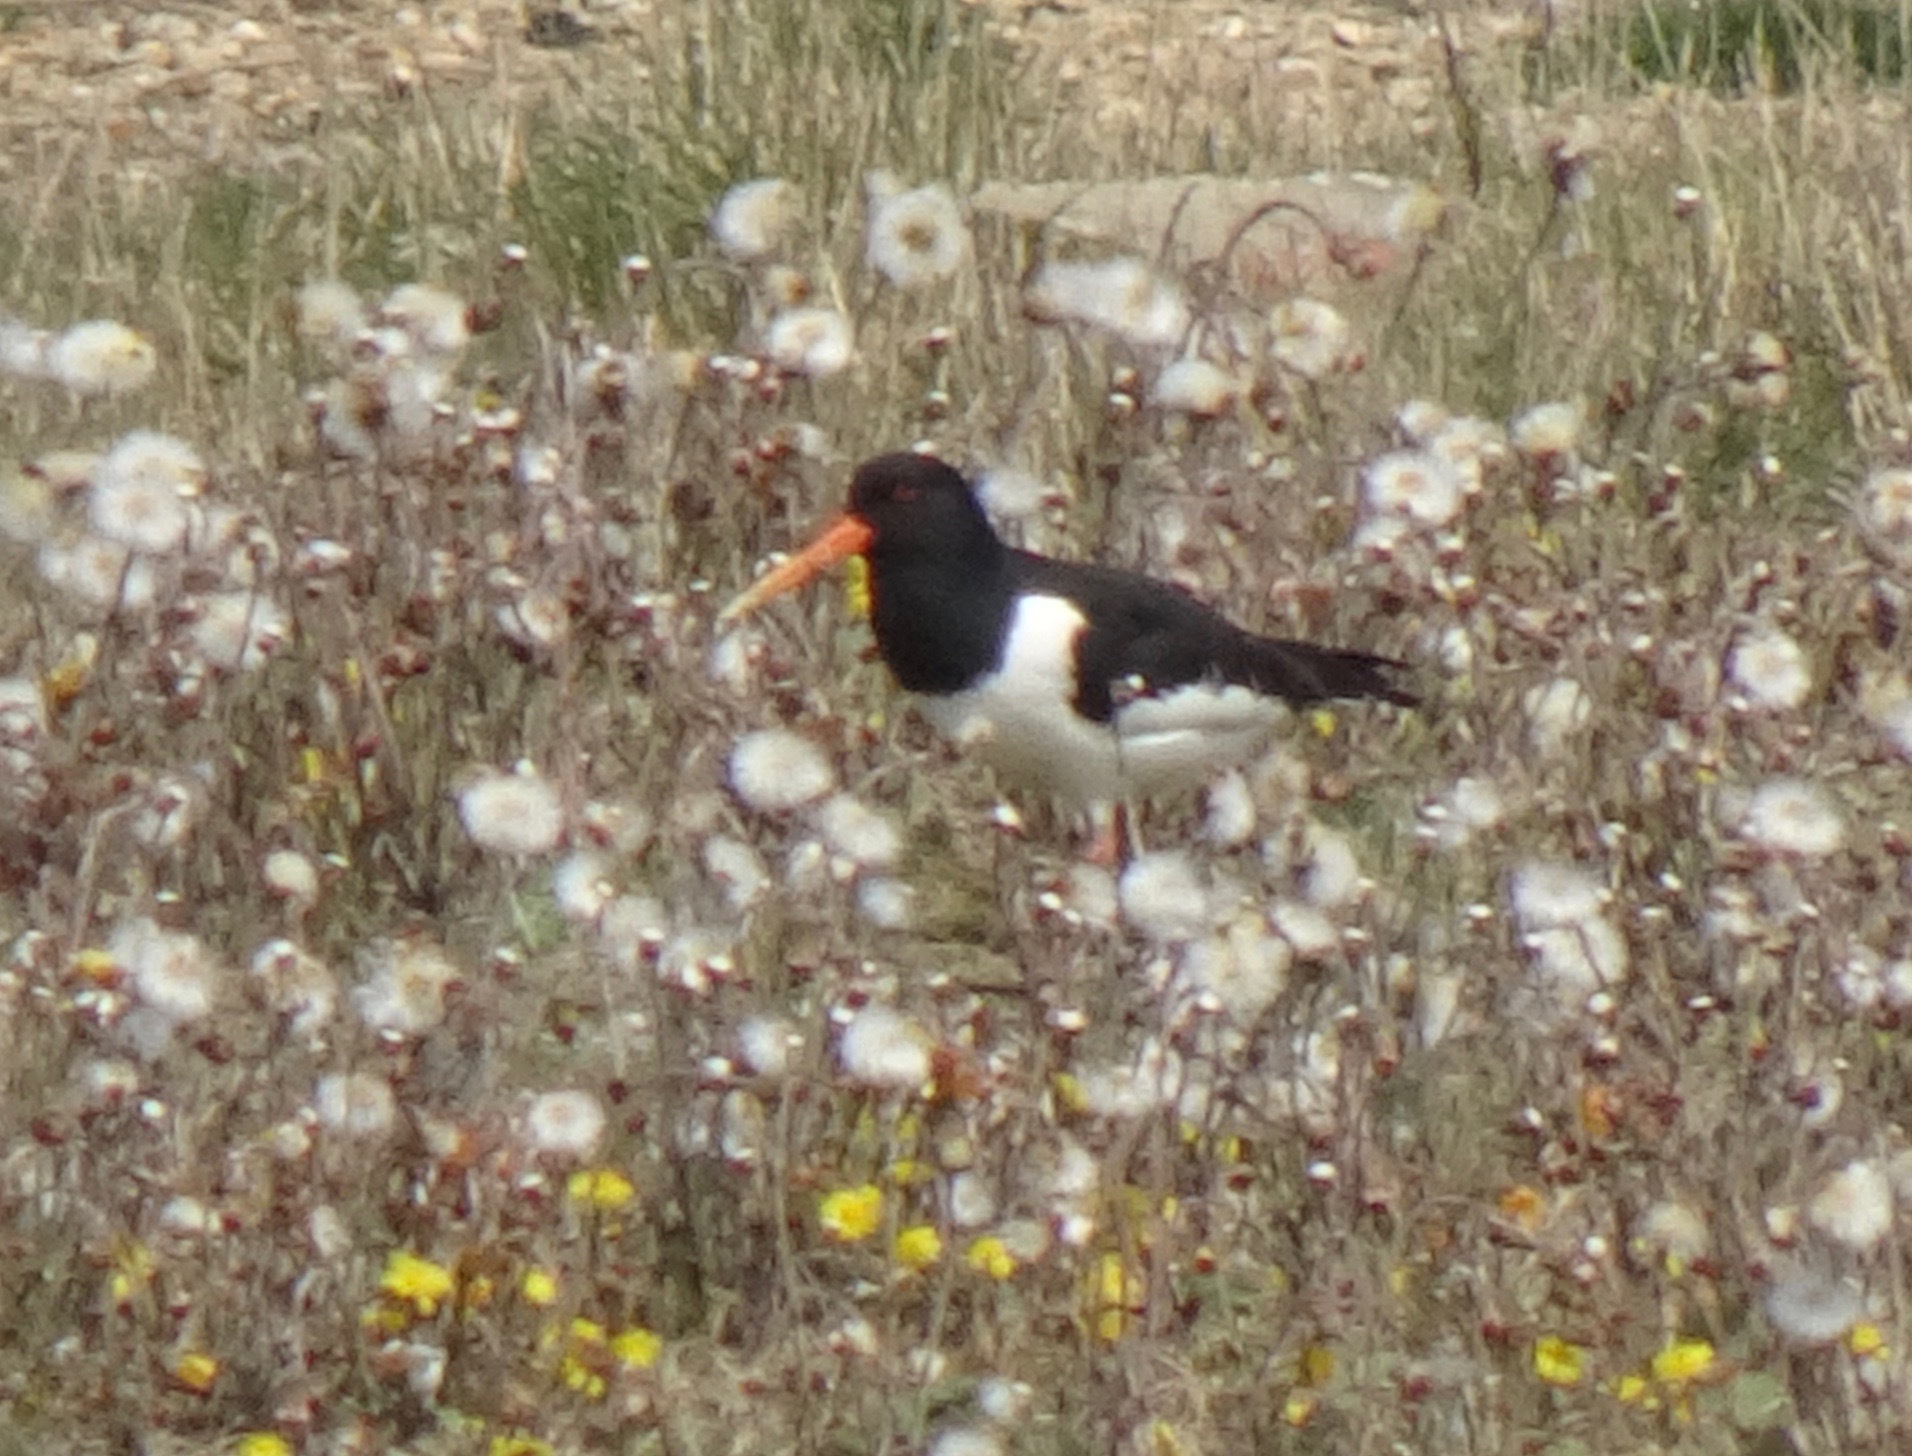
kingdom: Animalia
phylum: Chordata
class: Aves
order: Charadriiformes
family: Haematopodidae
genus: Haematopus
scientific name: Haematopus ostralegus
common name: Eurasian oystercatcher
